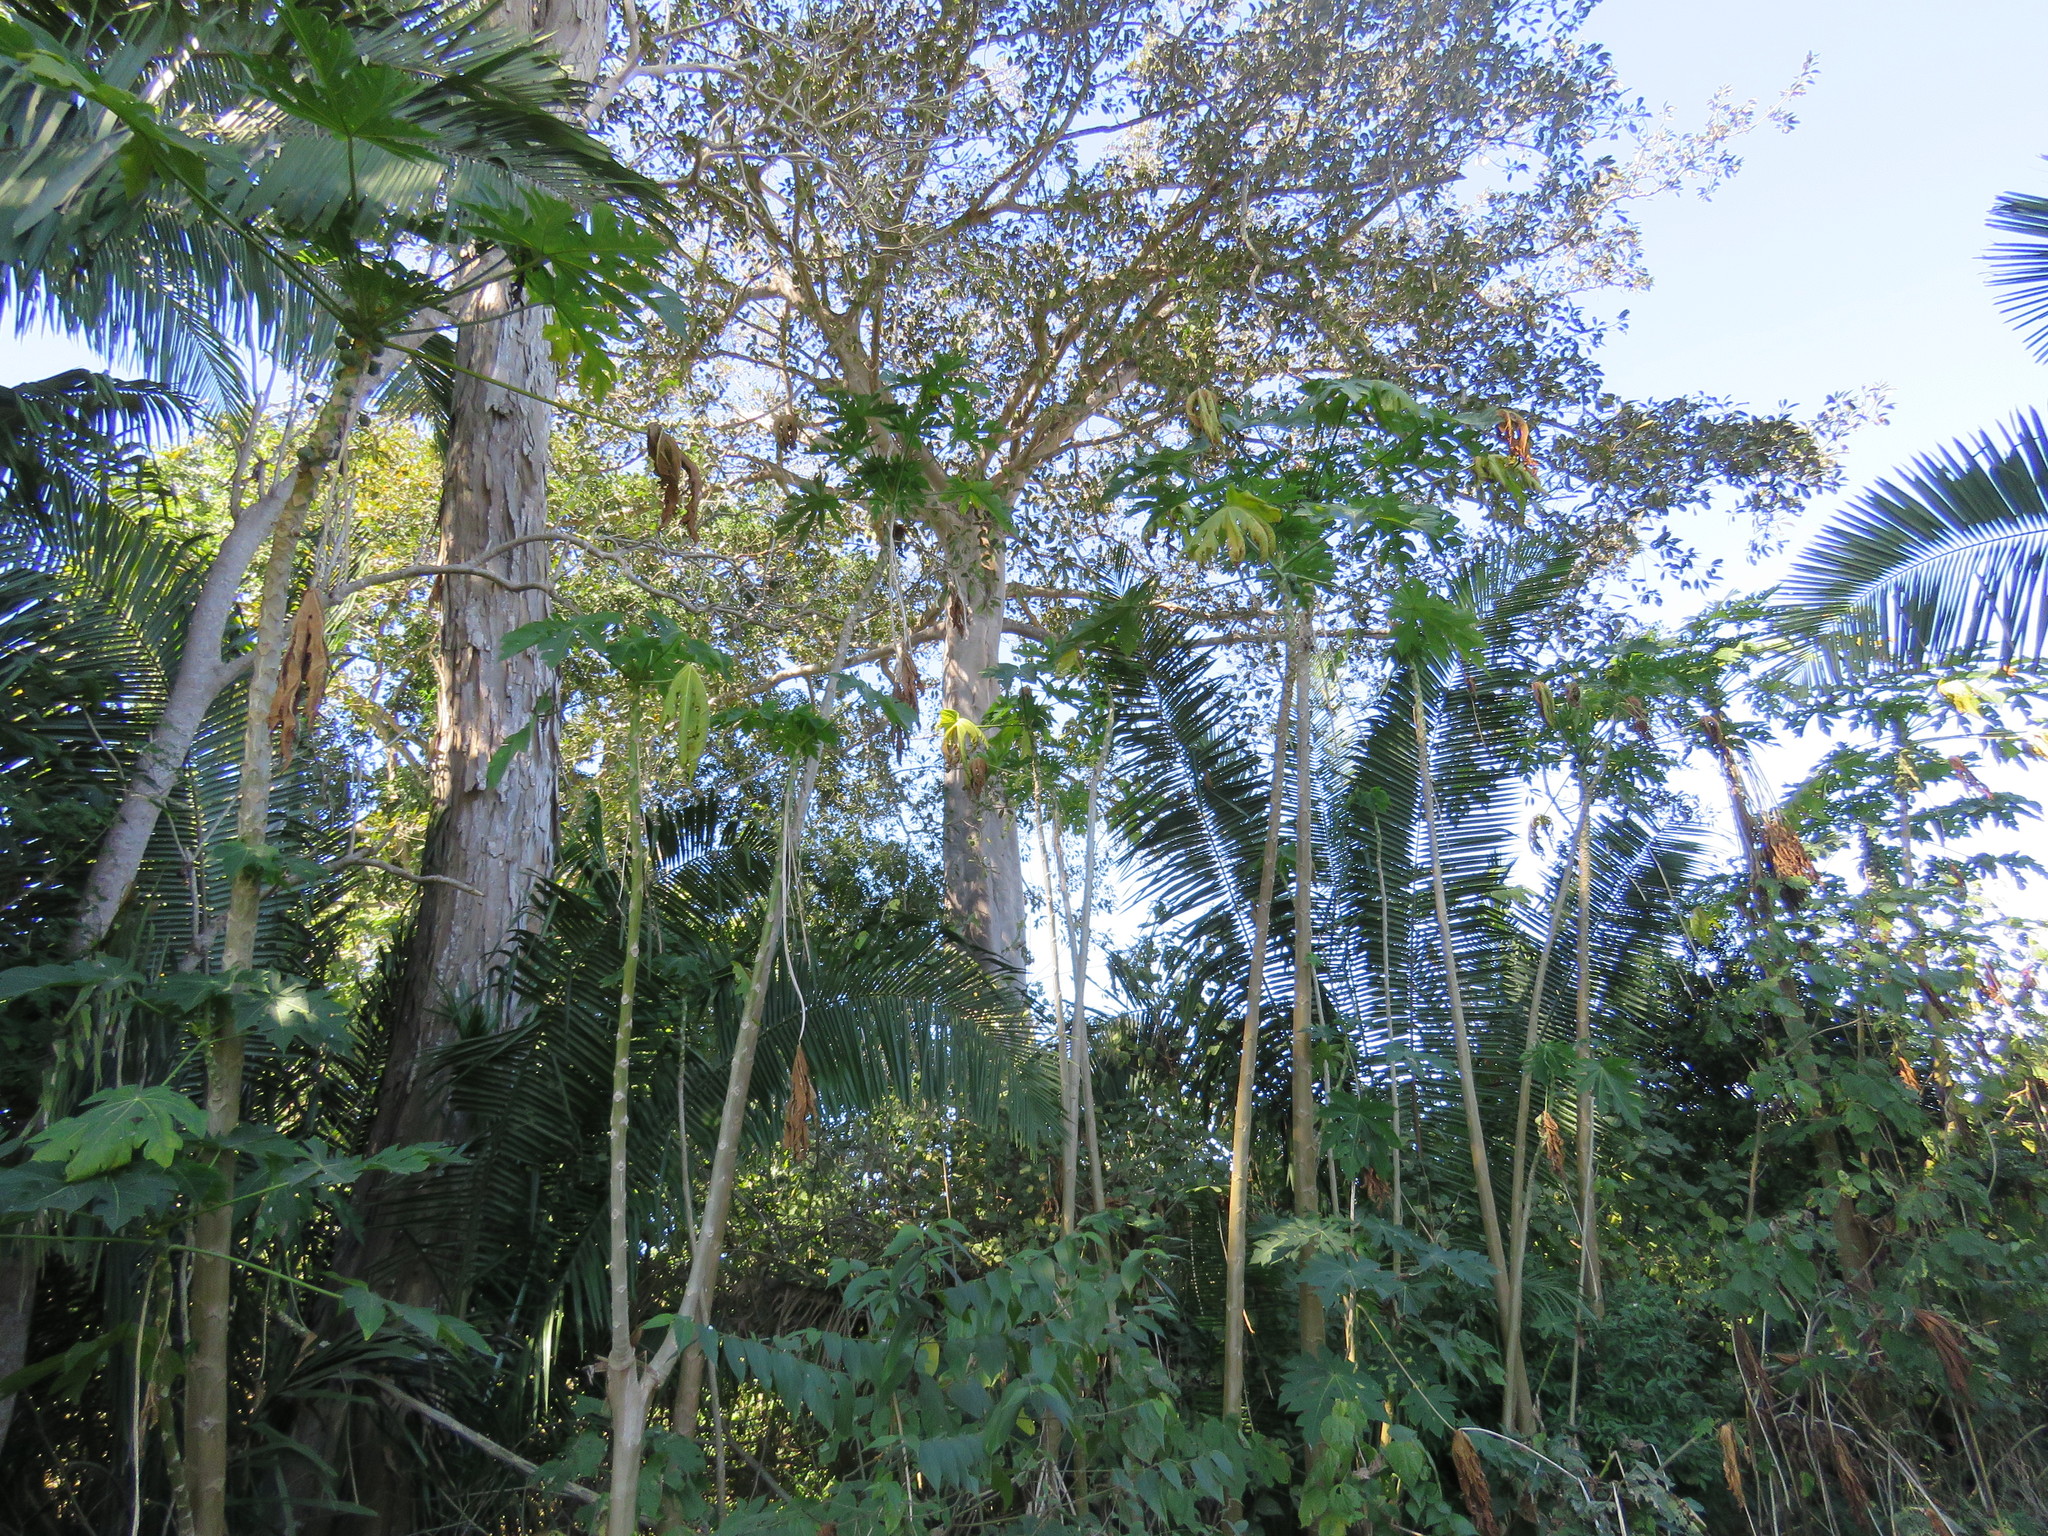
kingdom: Plantae
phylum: Tracheophyta
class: Magnoliopsida
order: Brassicales
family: Caricaceae
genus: Carica
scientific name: Carica papaya
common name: Papaya
